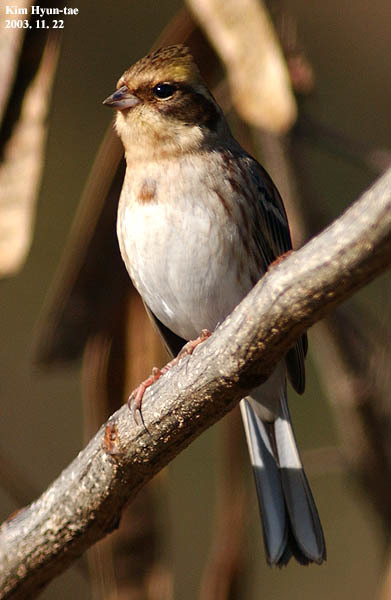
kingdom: Animalia
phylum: Chordata
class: Aves
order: Passeriformes
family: Emberizidae
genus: Emberiza
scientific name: Emberiza elegans
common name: Yellow-throated bunting
